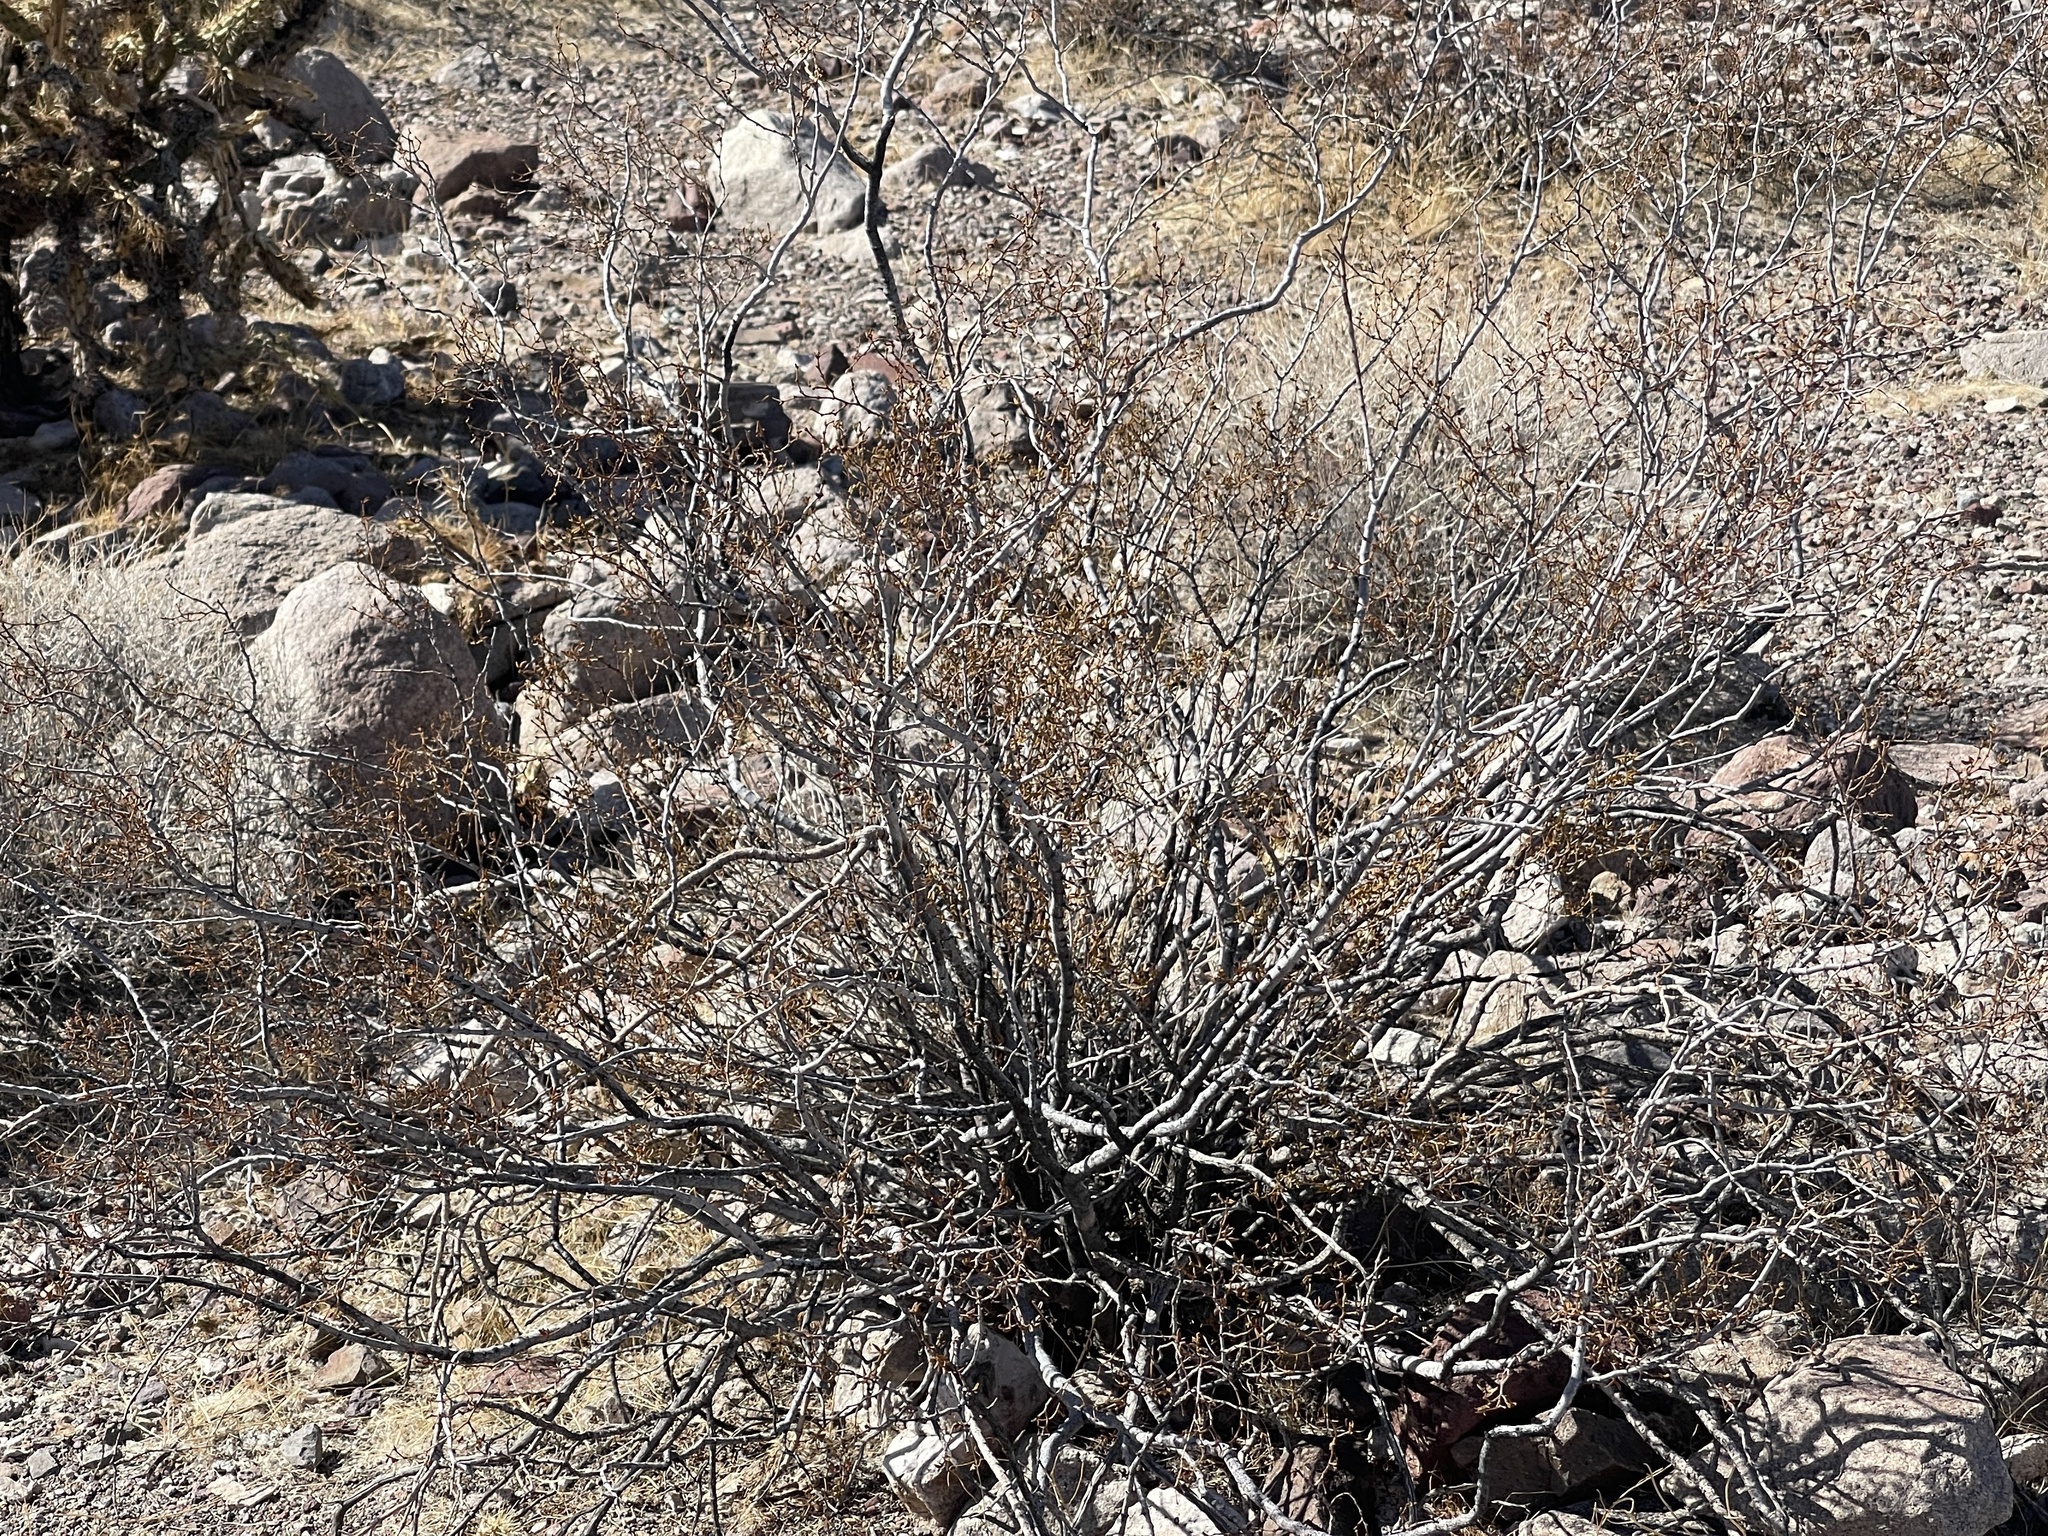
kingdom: Plantae
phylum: Tracheophyta
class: Magnoliopsida
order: Zygophyllales
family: Zygophyllaceae
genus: Larrea
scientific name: Larrea tridentata
